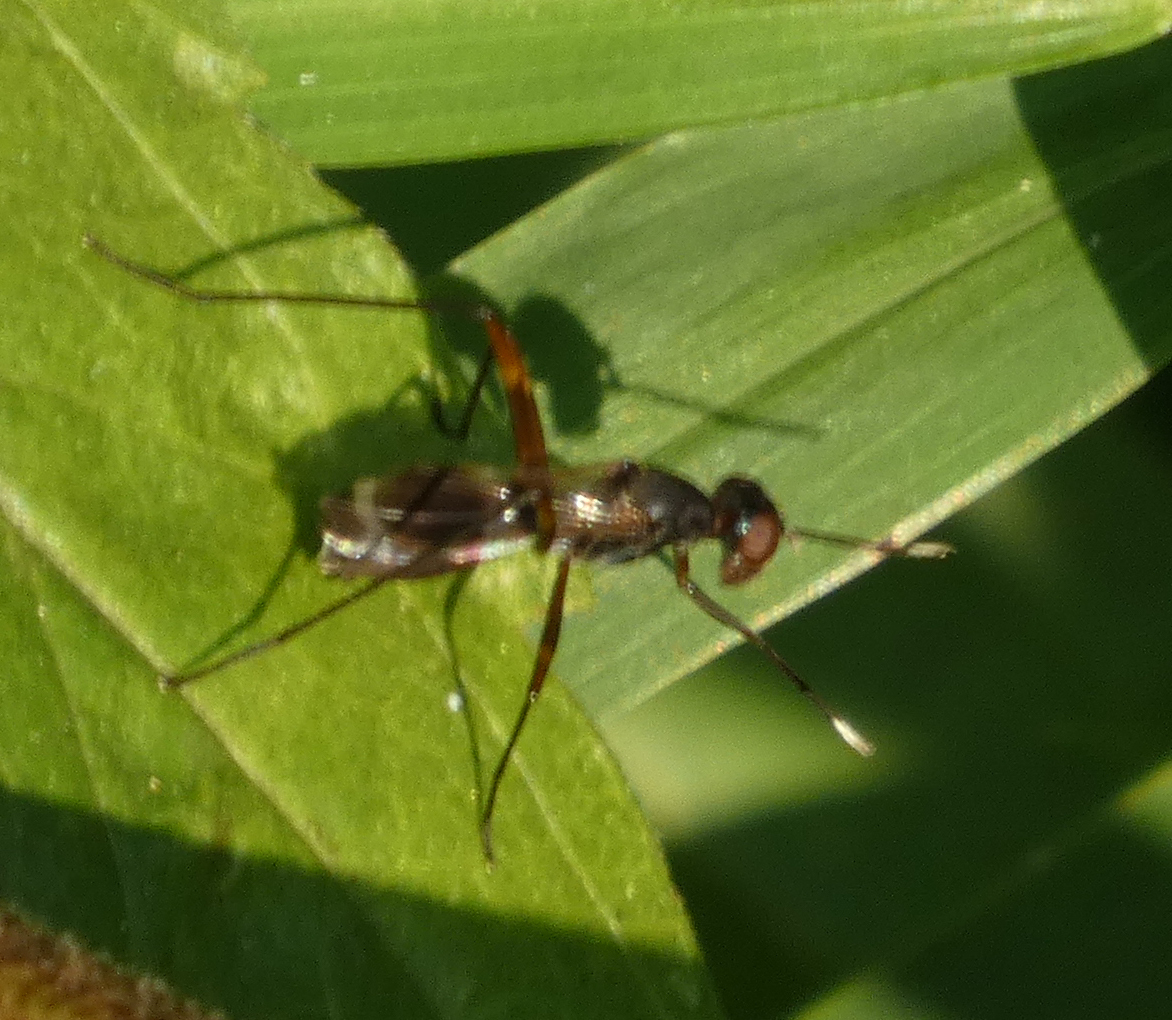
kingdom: Animalia
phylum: Arthropoda
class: Insecta
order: Diptera
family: Micropezidae
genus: Taeniaptera
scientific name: Taeniaptera trivittata
